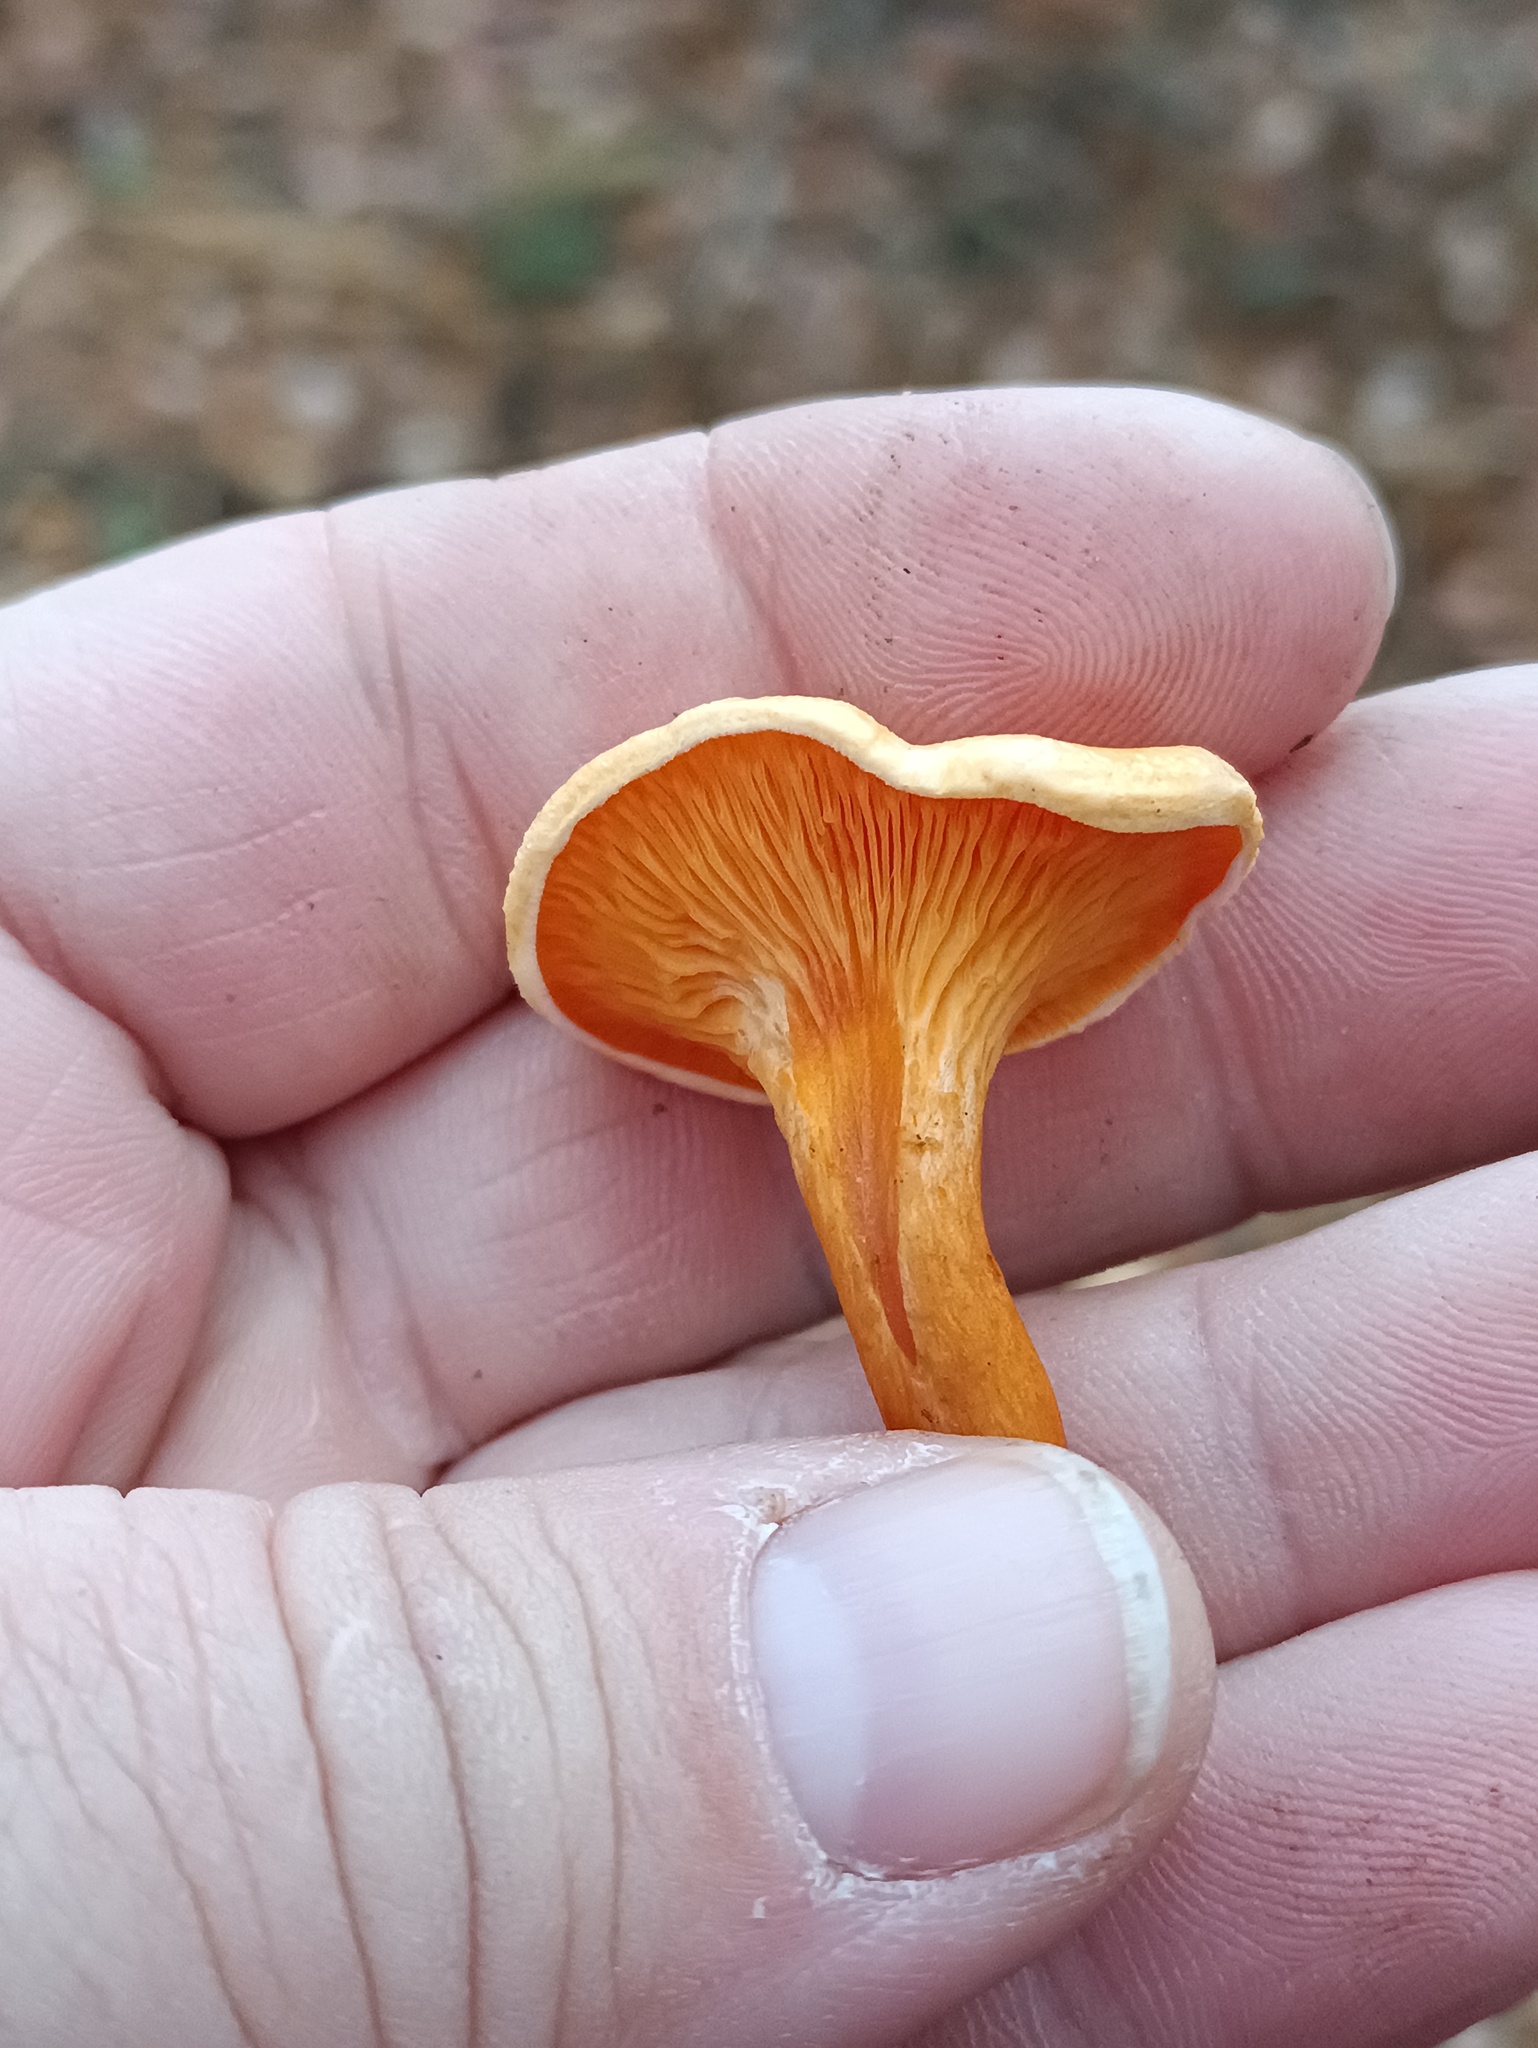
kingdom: Fungi
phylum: Basidiomycota
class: Agaricomycetes
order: Boletales
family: Hygrophoropsidaceae
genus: Hygrophoropsis
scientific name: Hygrophoropsis aurantiaca
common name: False chanterelle
